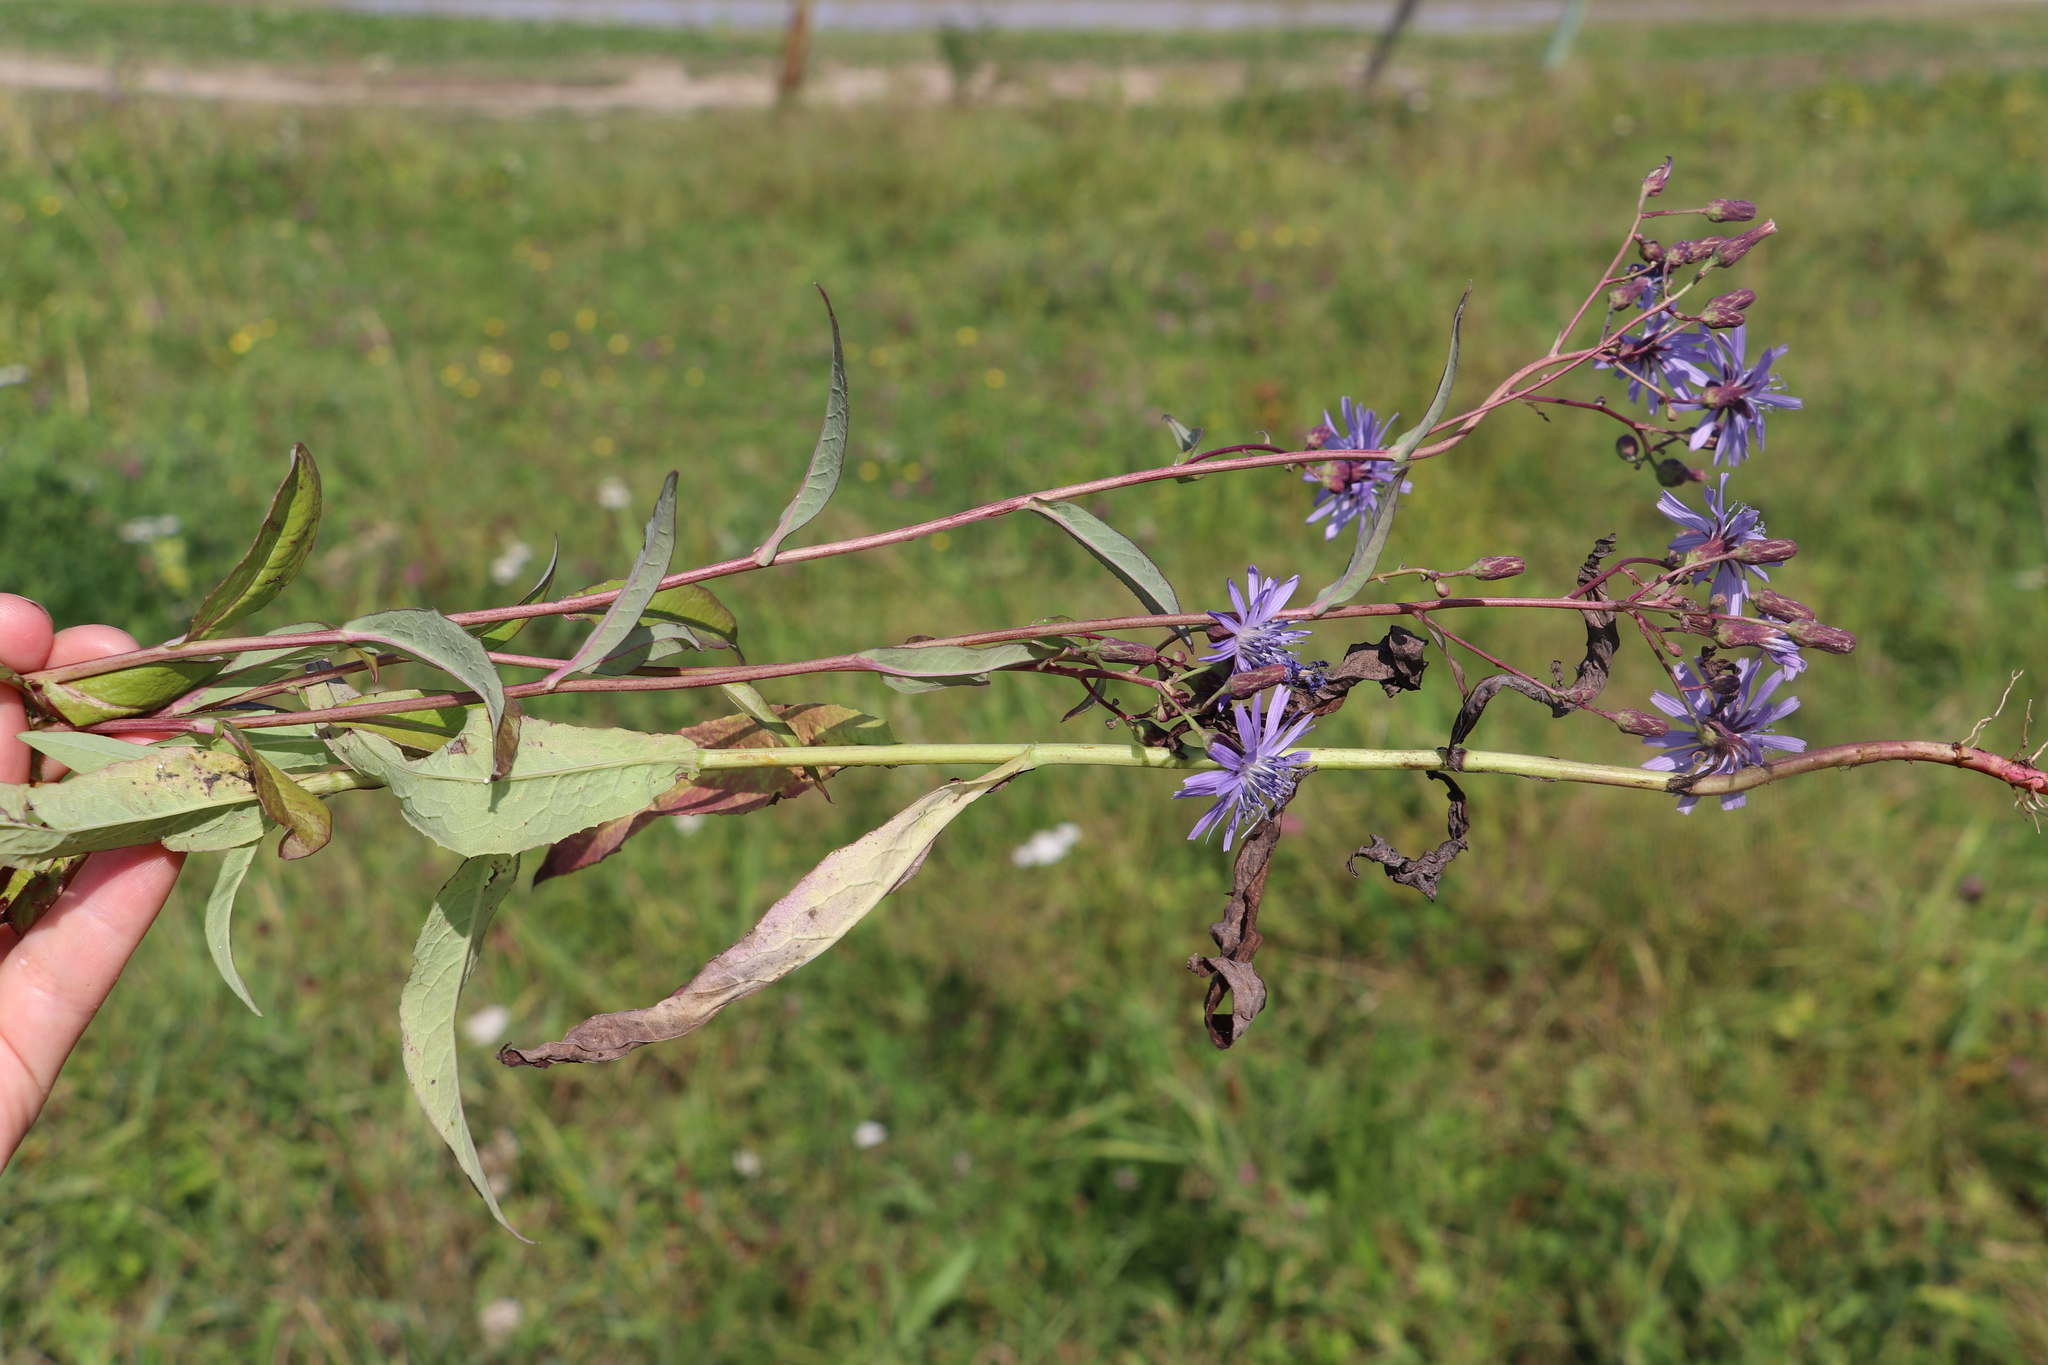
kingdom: Plantae
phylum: Tracheophyta
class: Magnoliopsida
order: Asterales
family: Asteraceae
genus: Lactuca
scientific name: Lactuca sibirica
